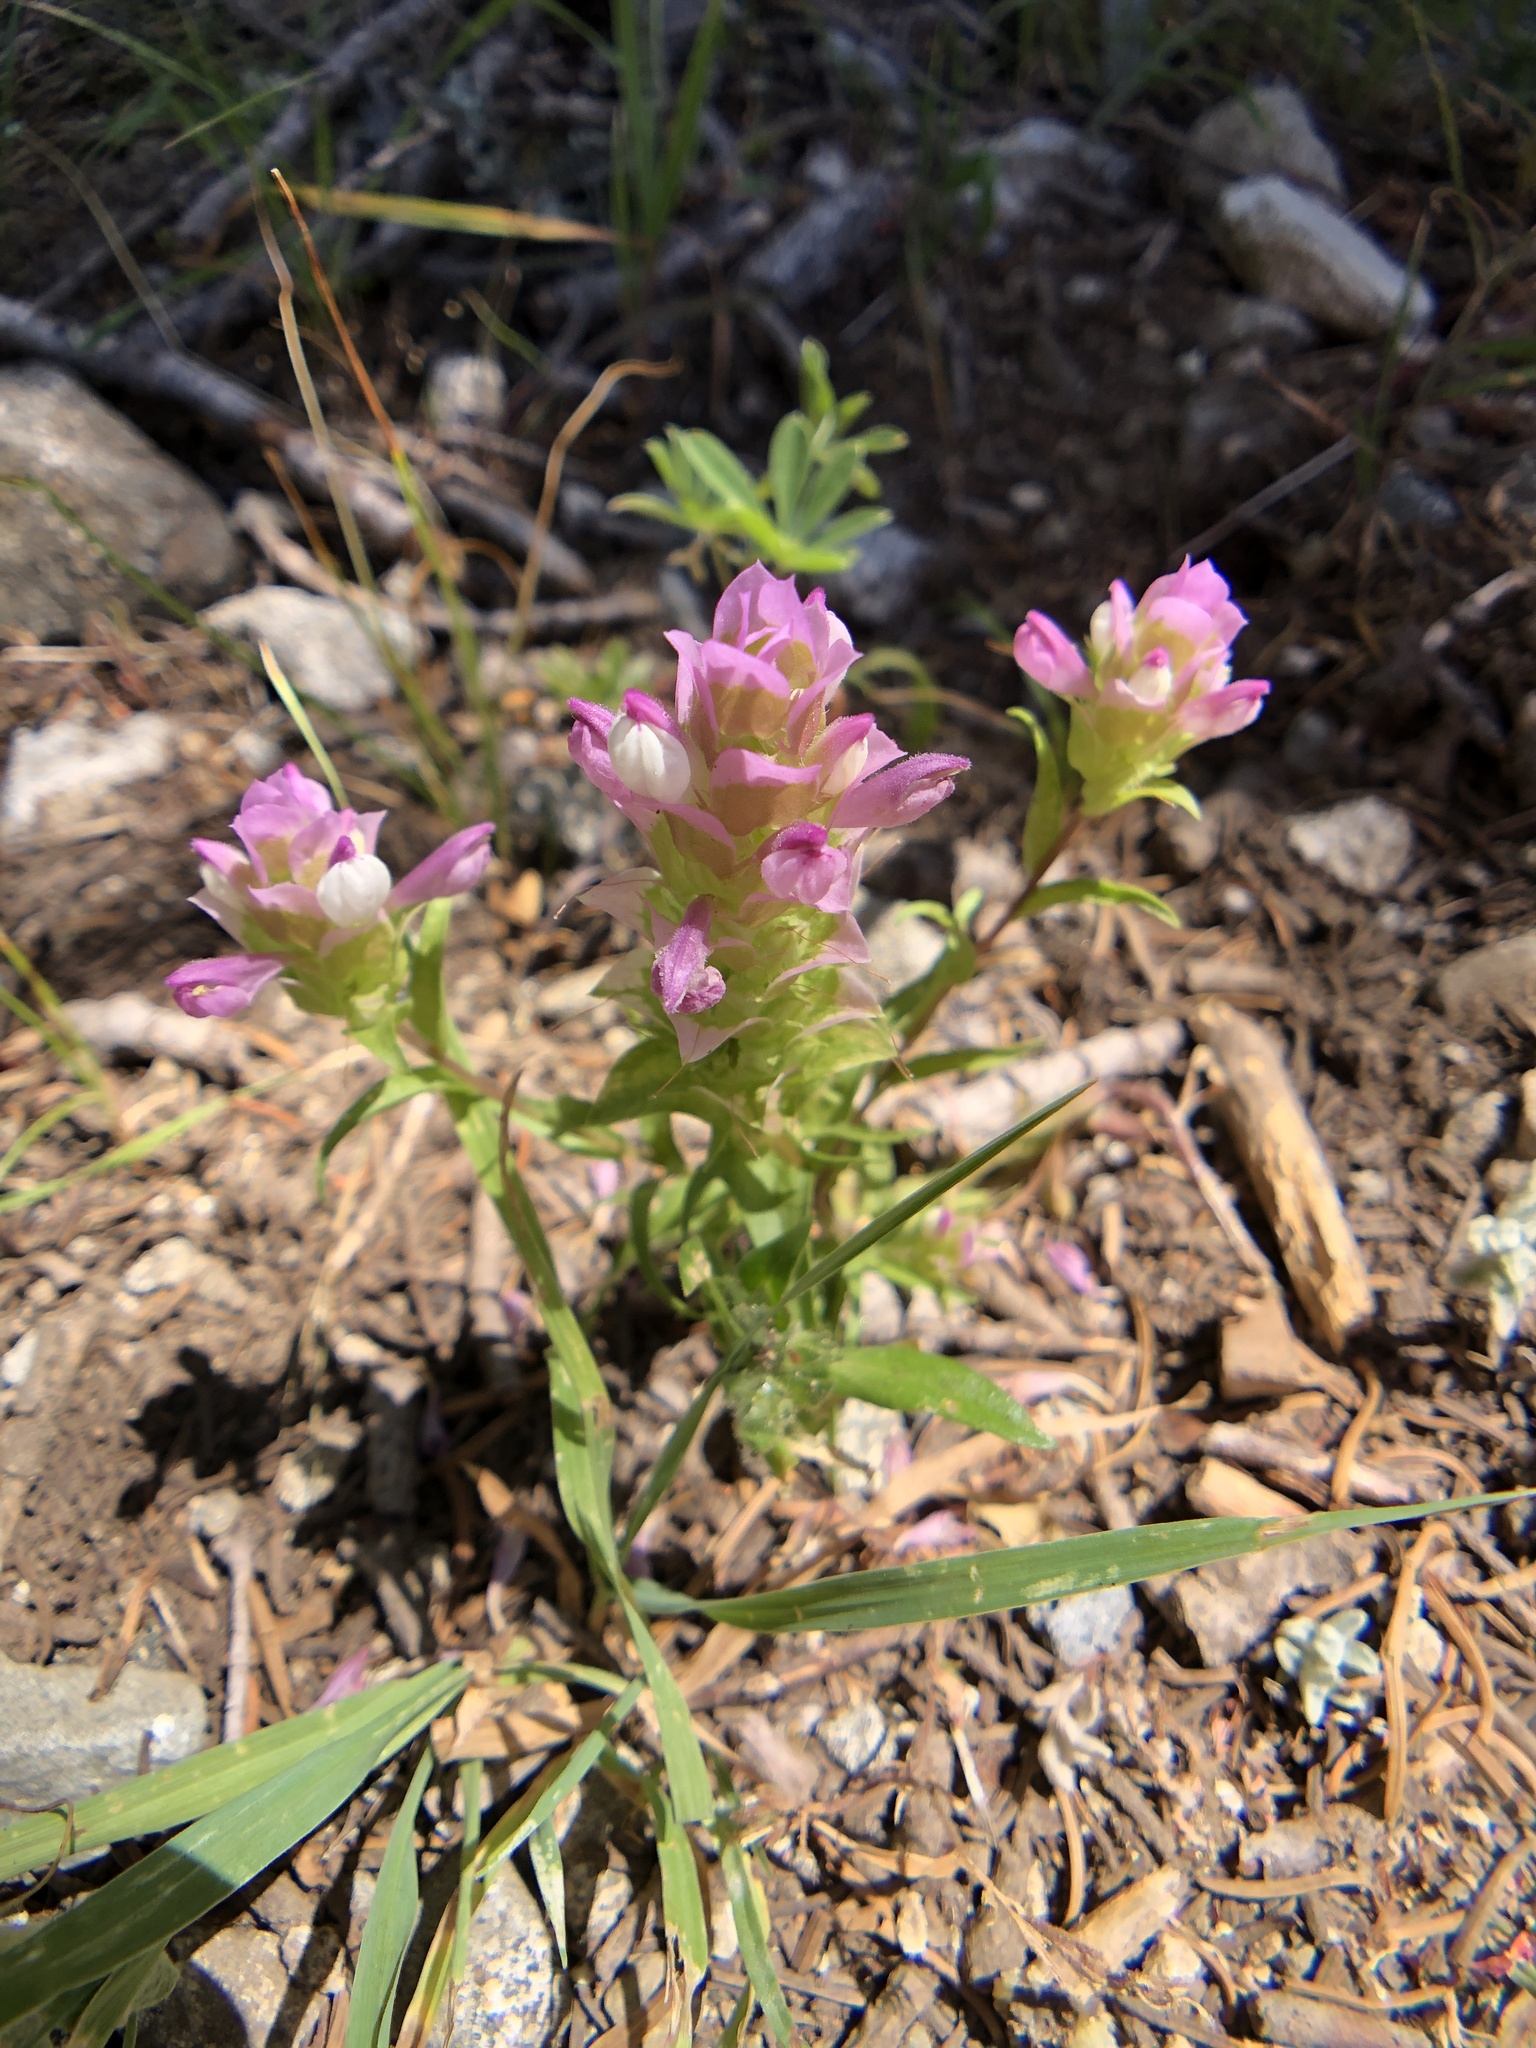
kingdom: Plantae
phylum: Tracheophyta
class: Magnoliopsida
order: Lamiales
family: Orobanchaceae
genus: Orthocarpus
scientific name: Orthocarpus cuspidatus
